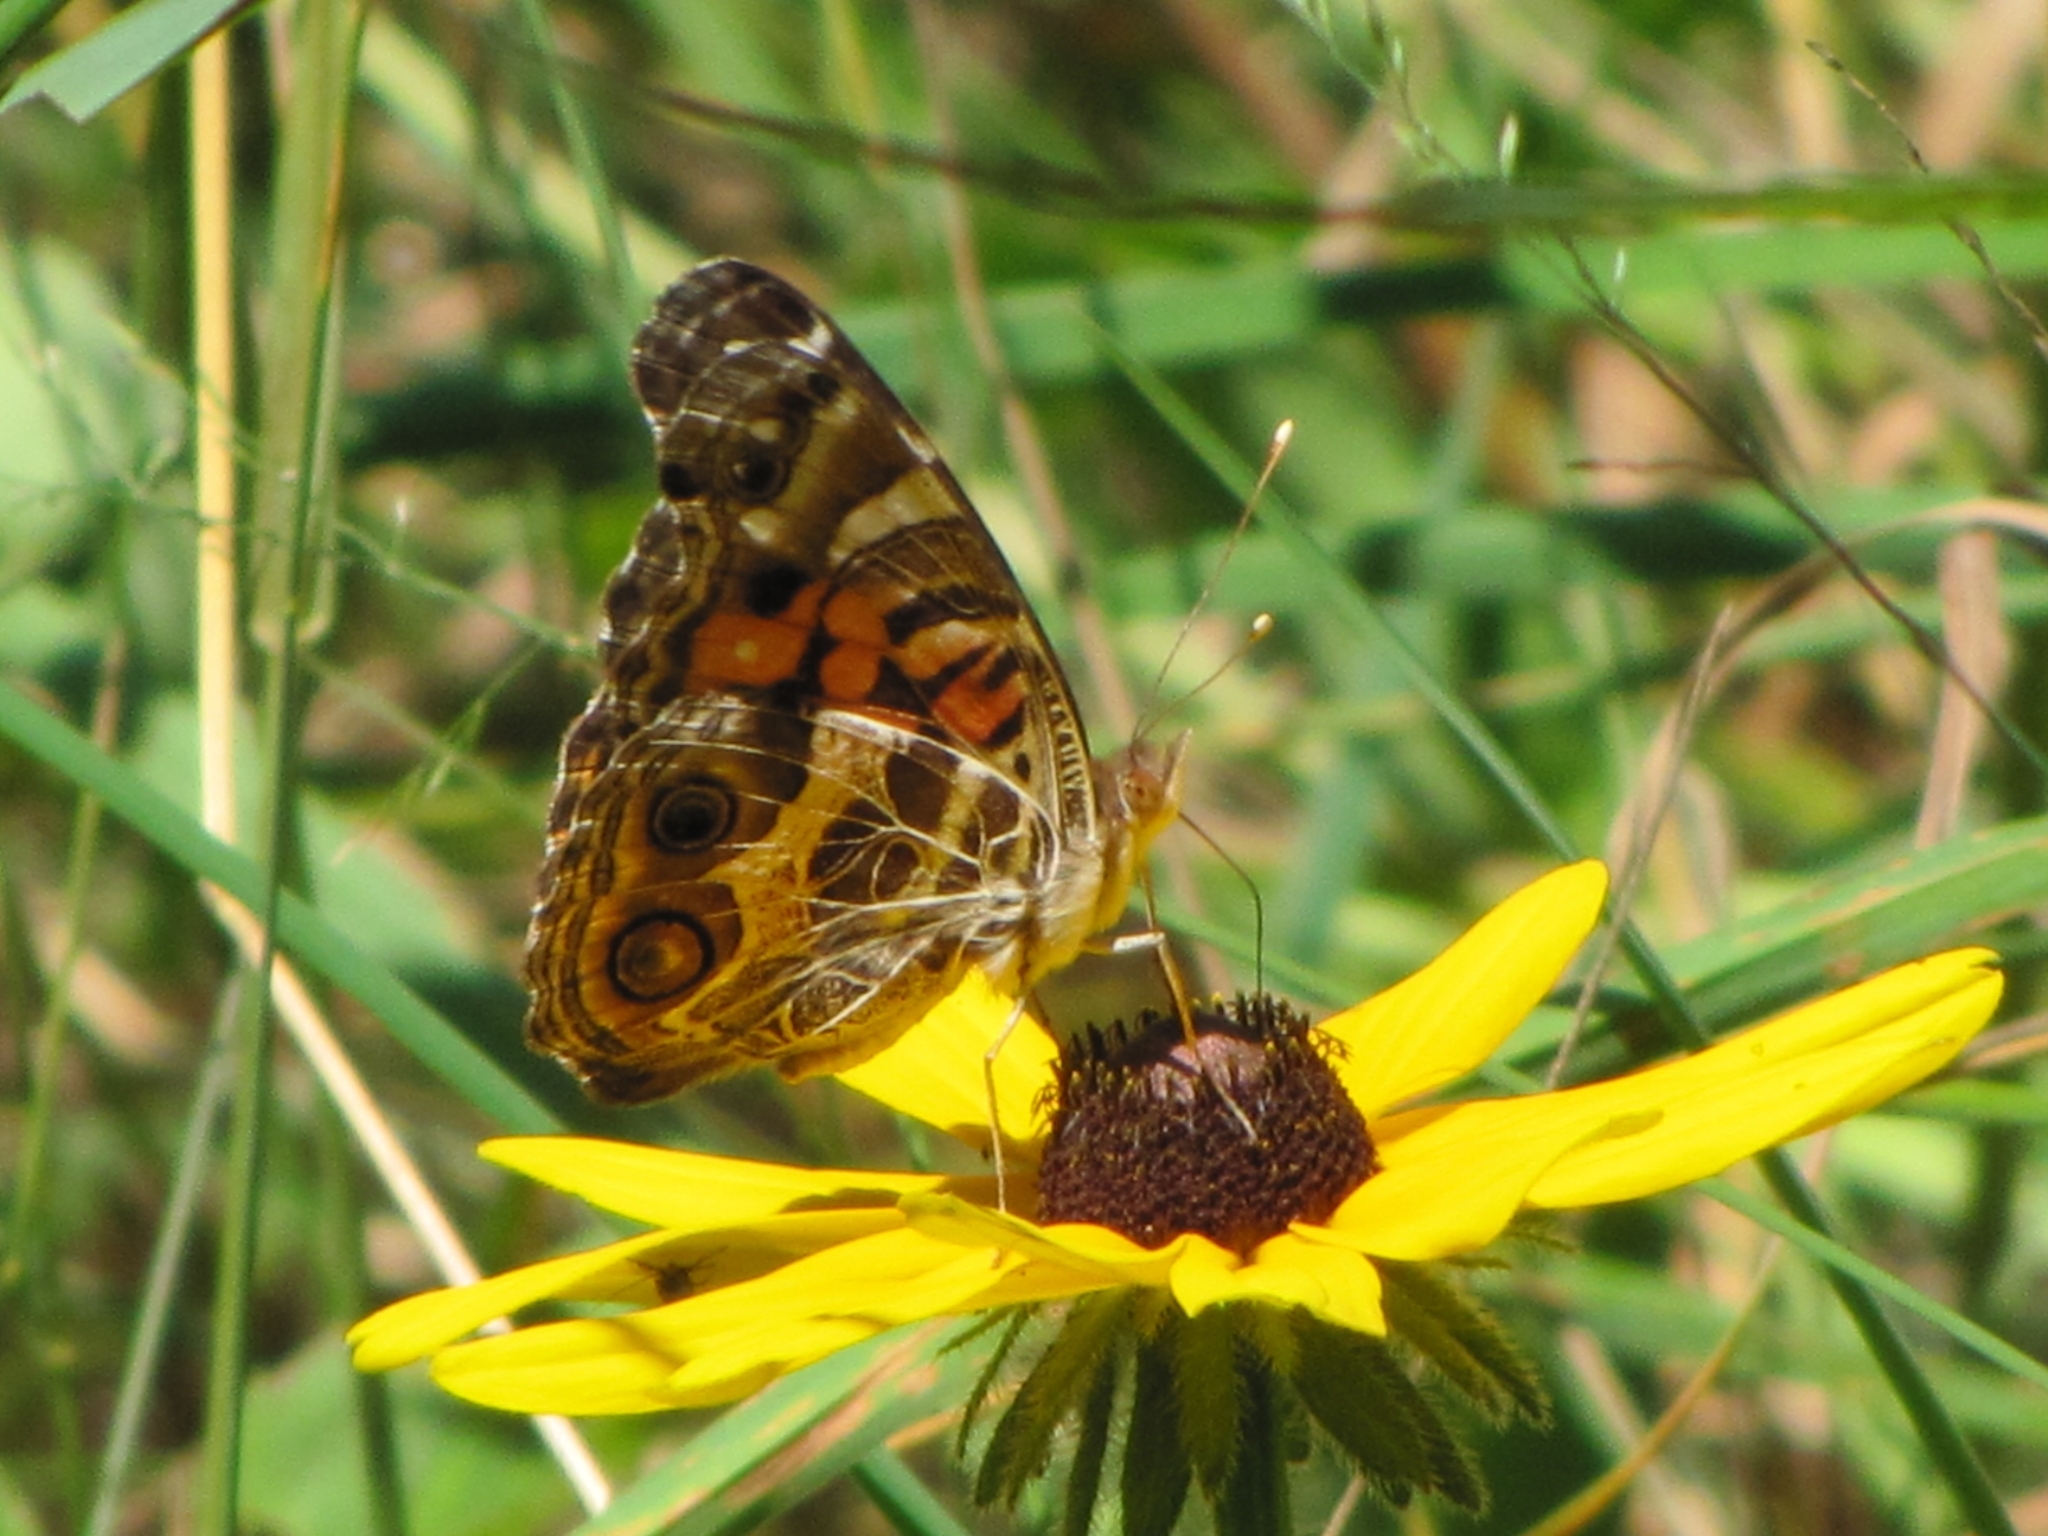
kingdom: Animalia
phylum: Arthropoda
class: Insecta
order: Lepidoptera
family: Nymphalidae
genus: Vanessa
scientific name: Vanessa virginiensis
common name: American lady
